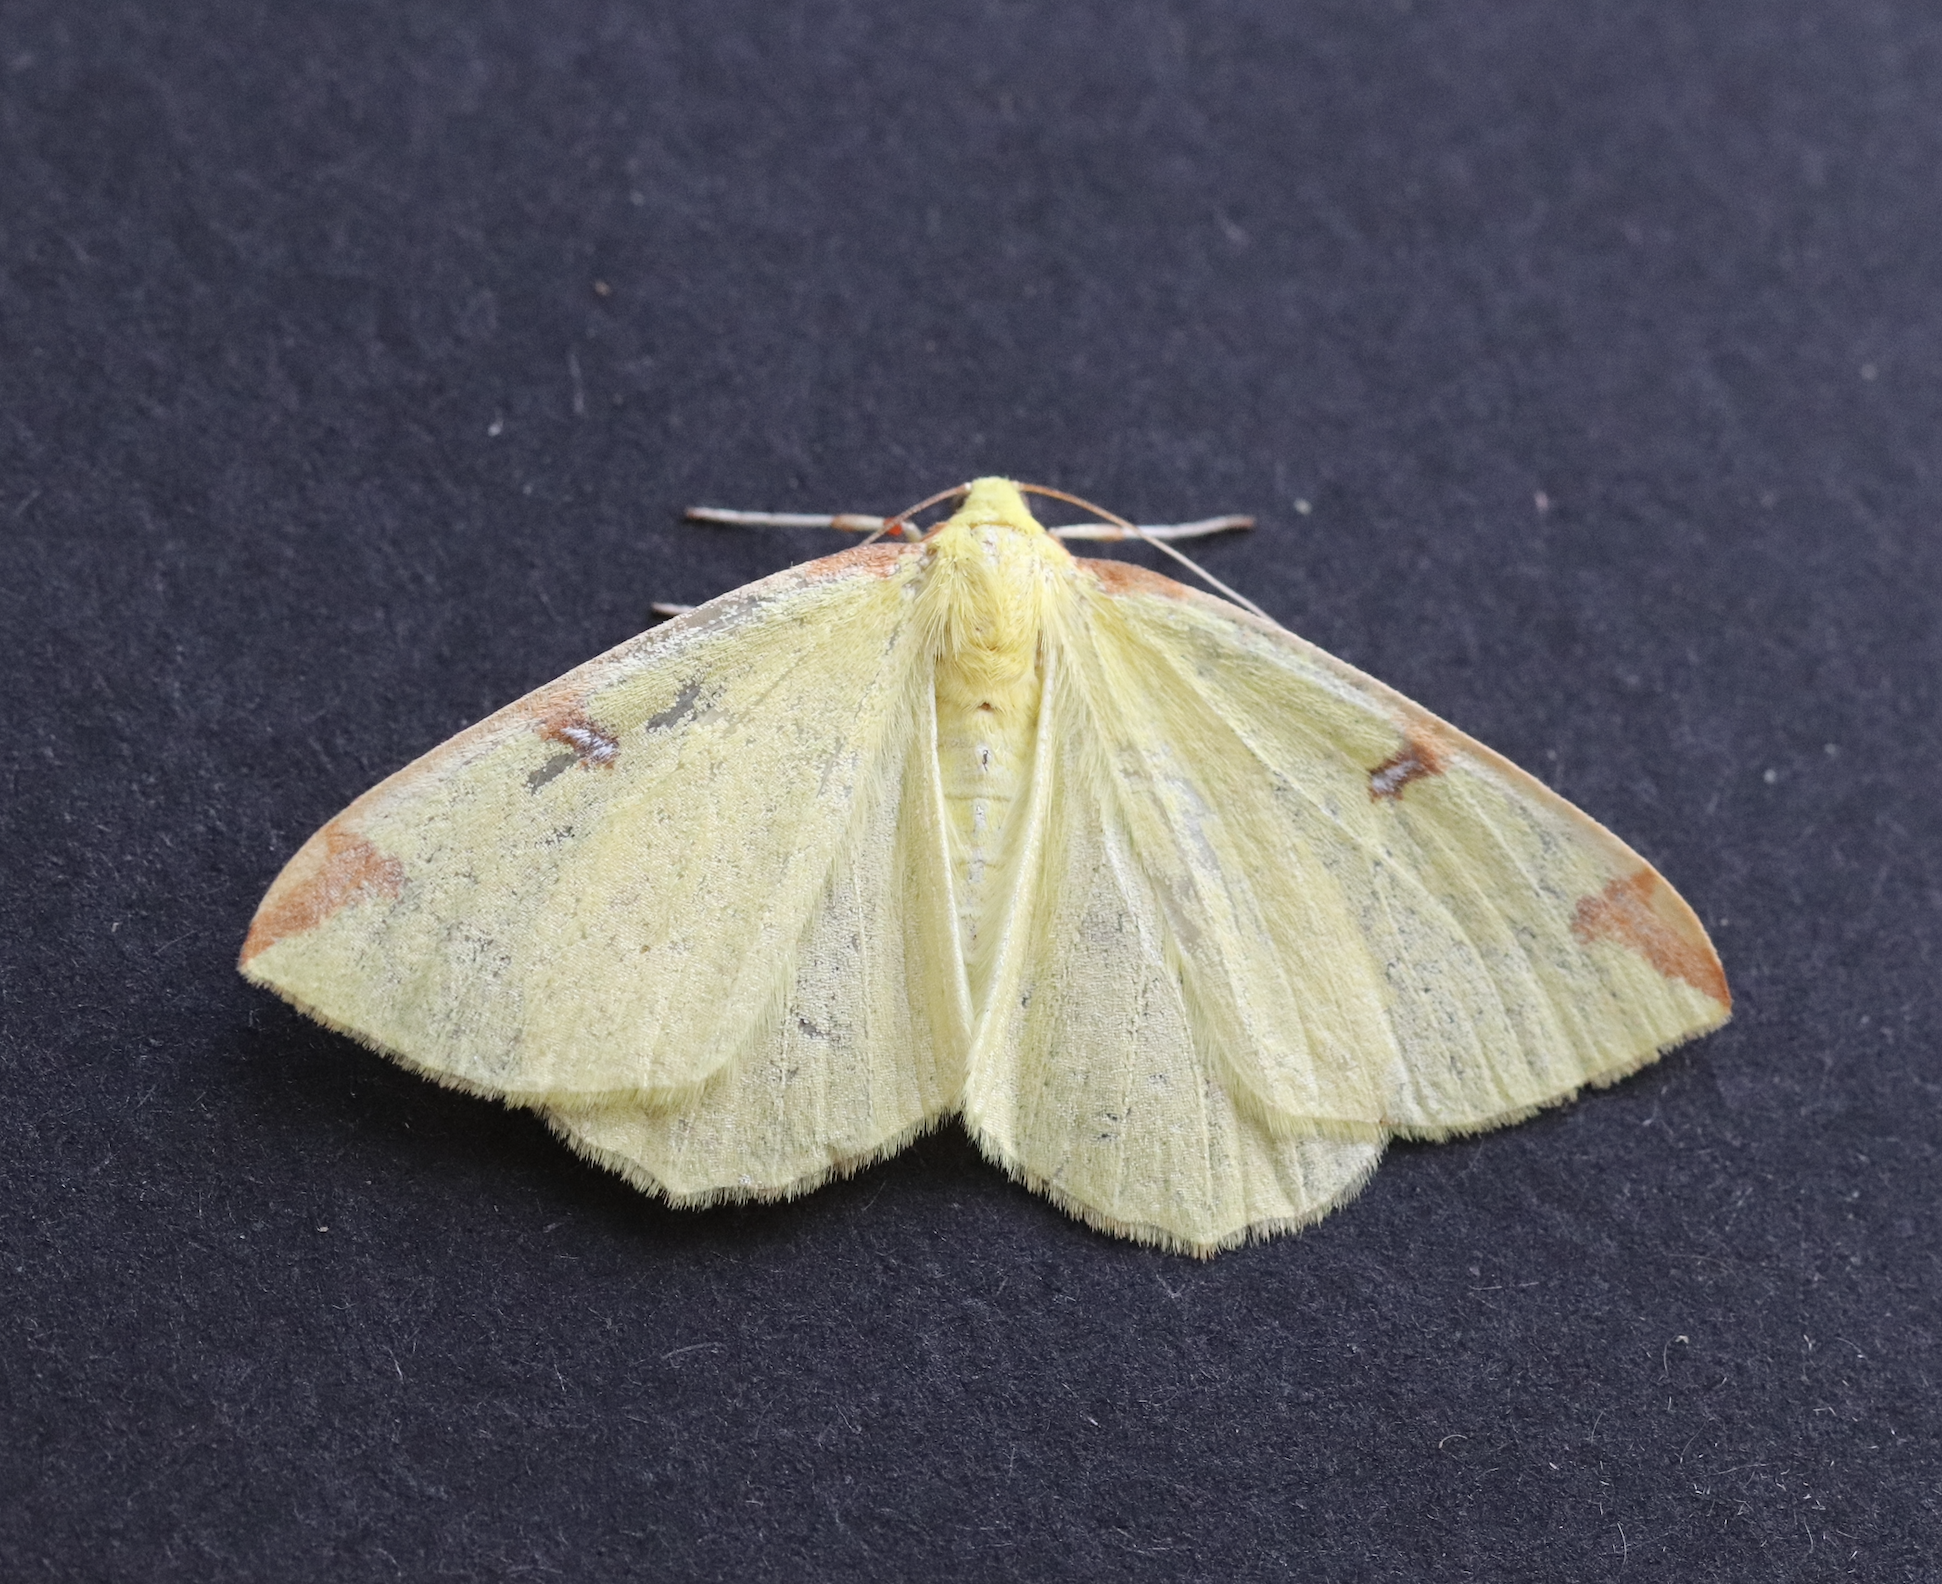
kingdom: Animalia
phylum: Arthropoda
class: Insecta
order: Lepidoptera
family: Geometridae
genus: Opisthograptis
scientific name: Opisthograptis luteolata
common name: Brimstone moth
